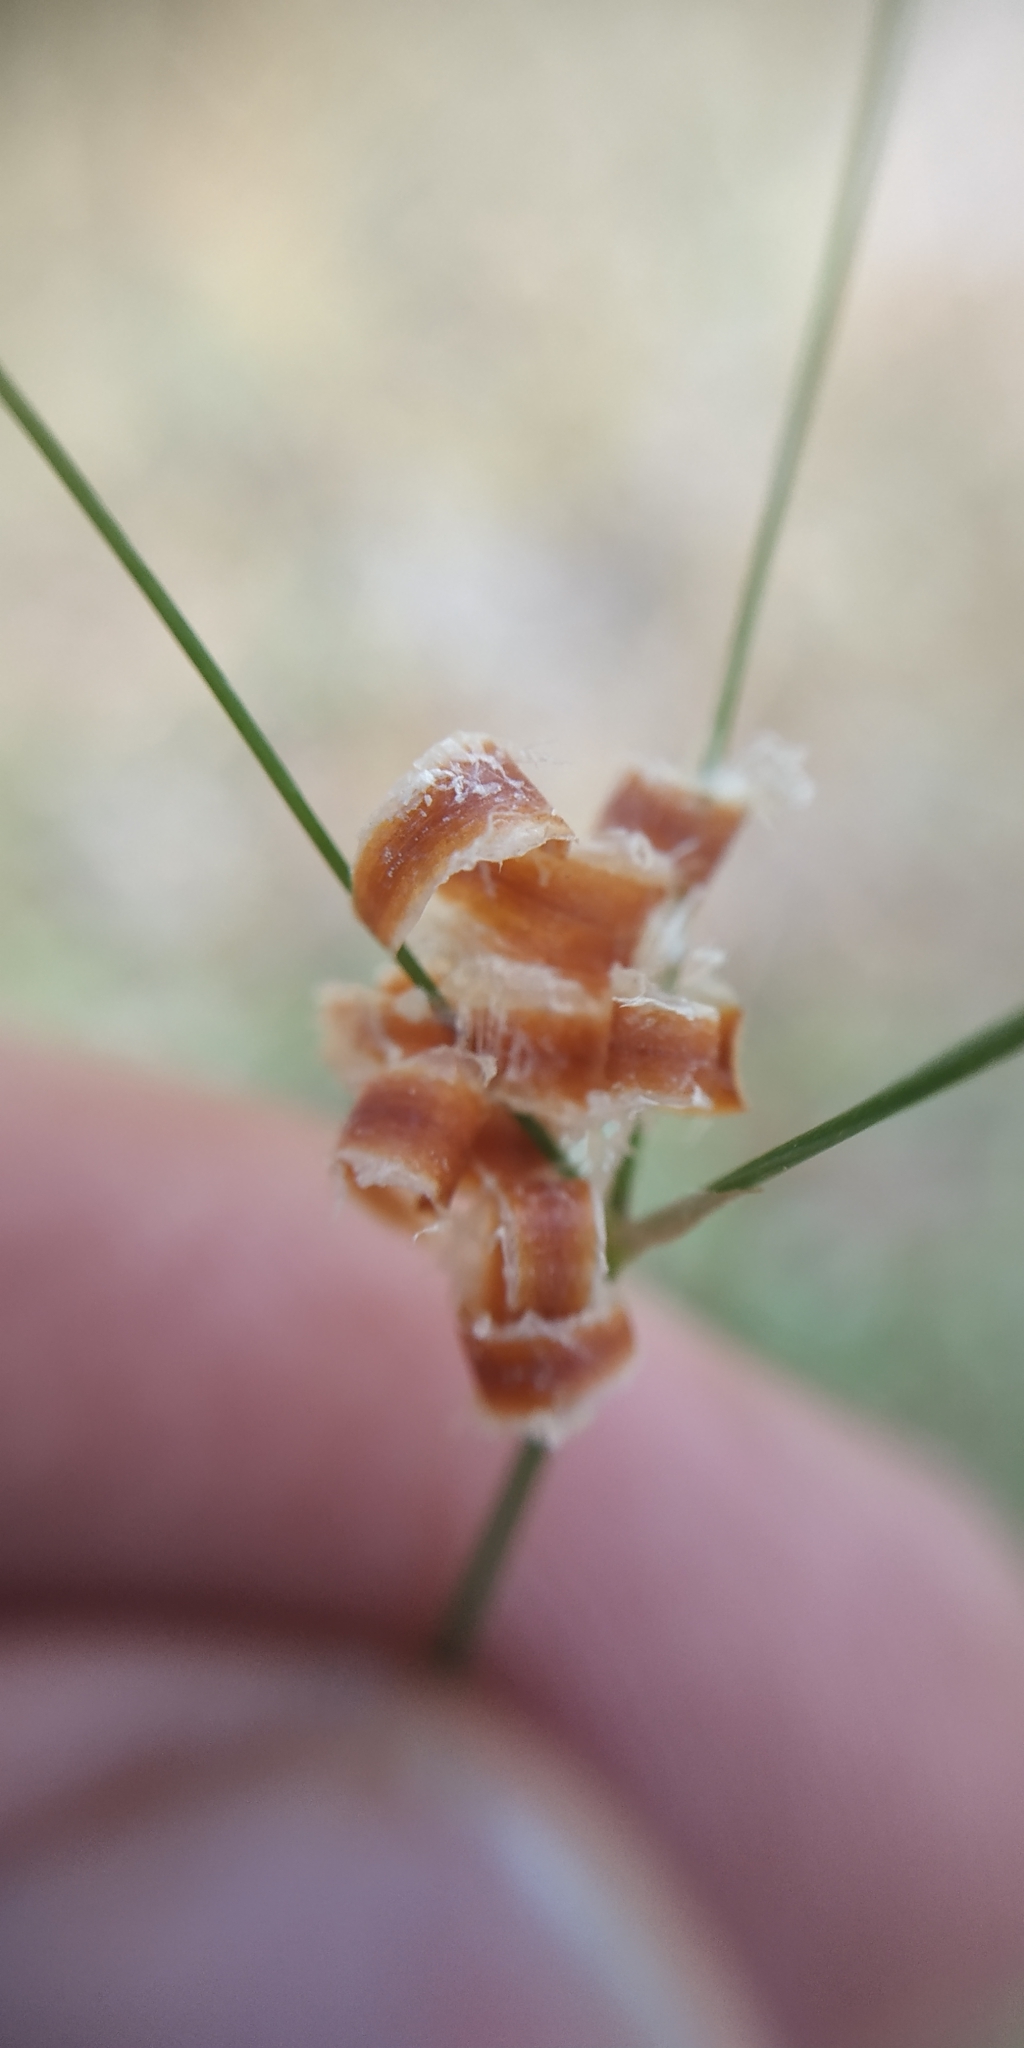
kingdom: Plantae
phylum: Tracheophyta
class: Pinopsida
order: Pinales
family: Pinaceae
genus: Pinus
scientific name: Pinus sylvestris
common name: Scots pine
